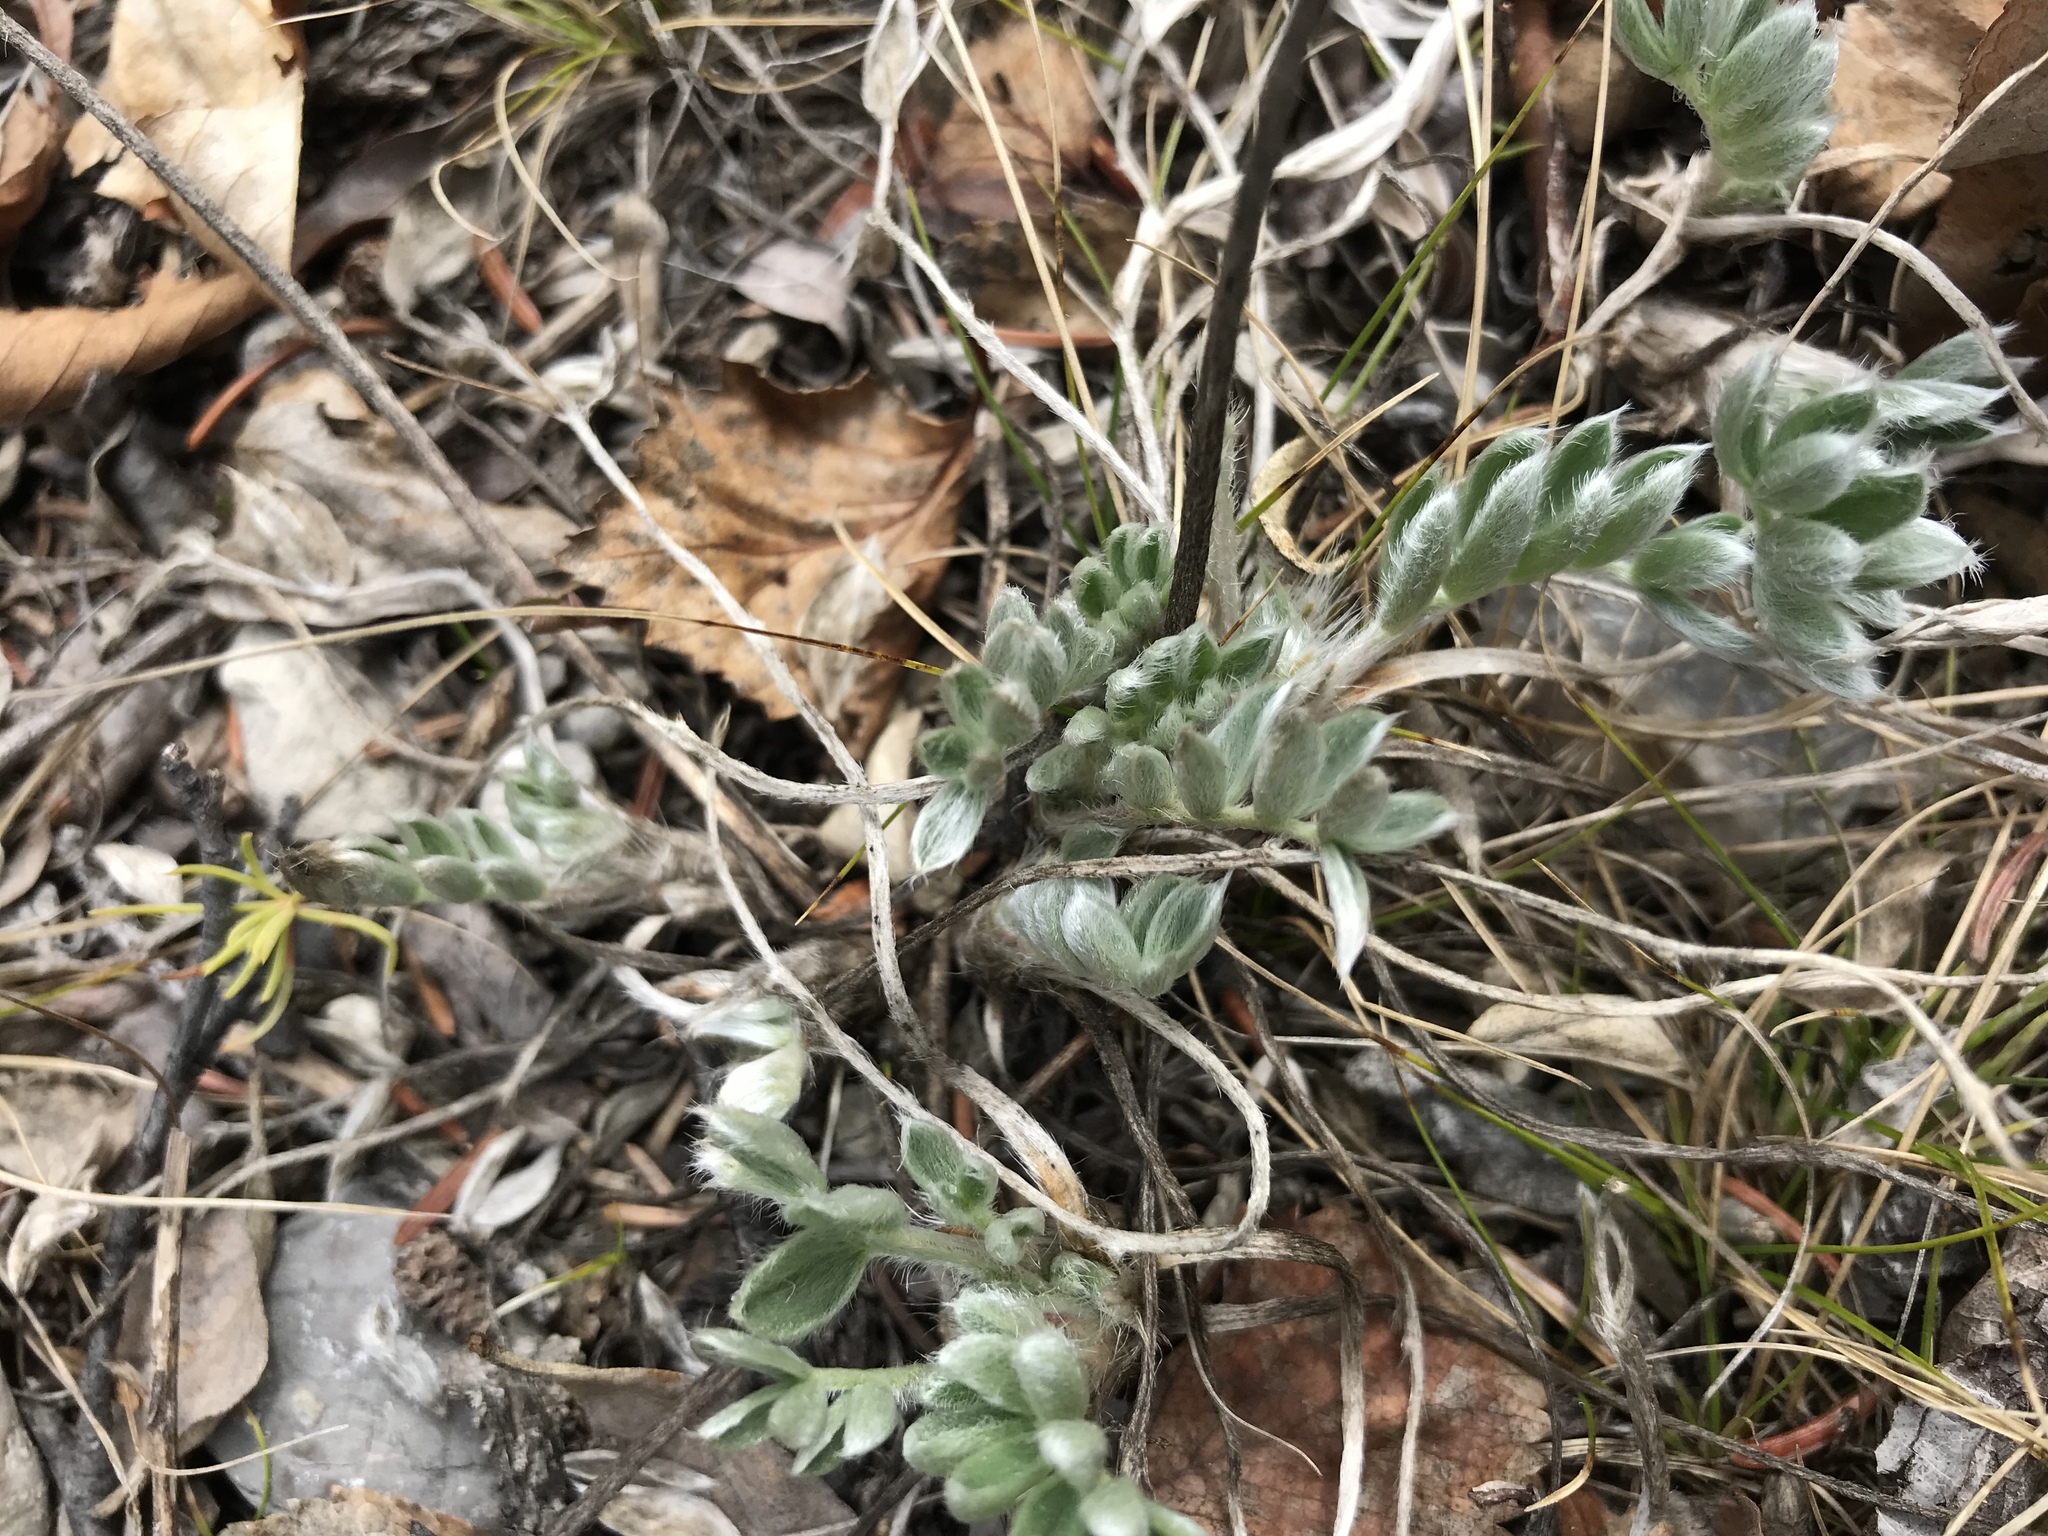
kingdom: Plantae
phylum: Tracheophyta
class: Magnoliopsida
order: Fabales
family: Fabaceae
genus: Oxytropis
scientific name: Oxytropis sericea
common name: Silky locoweed
